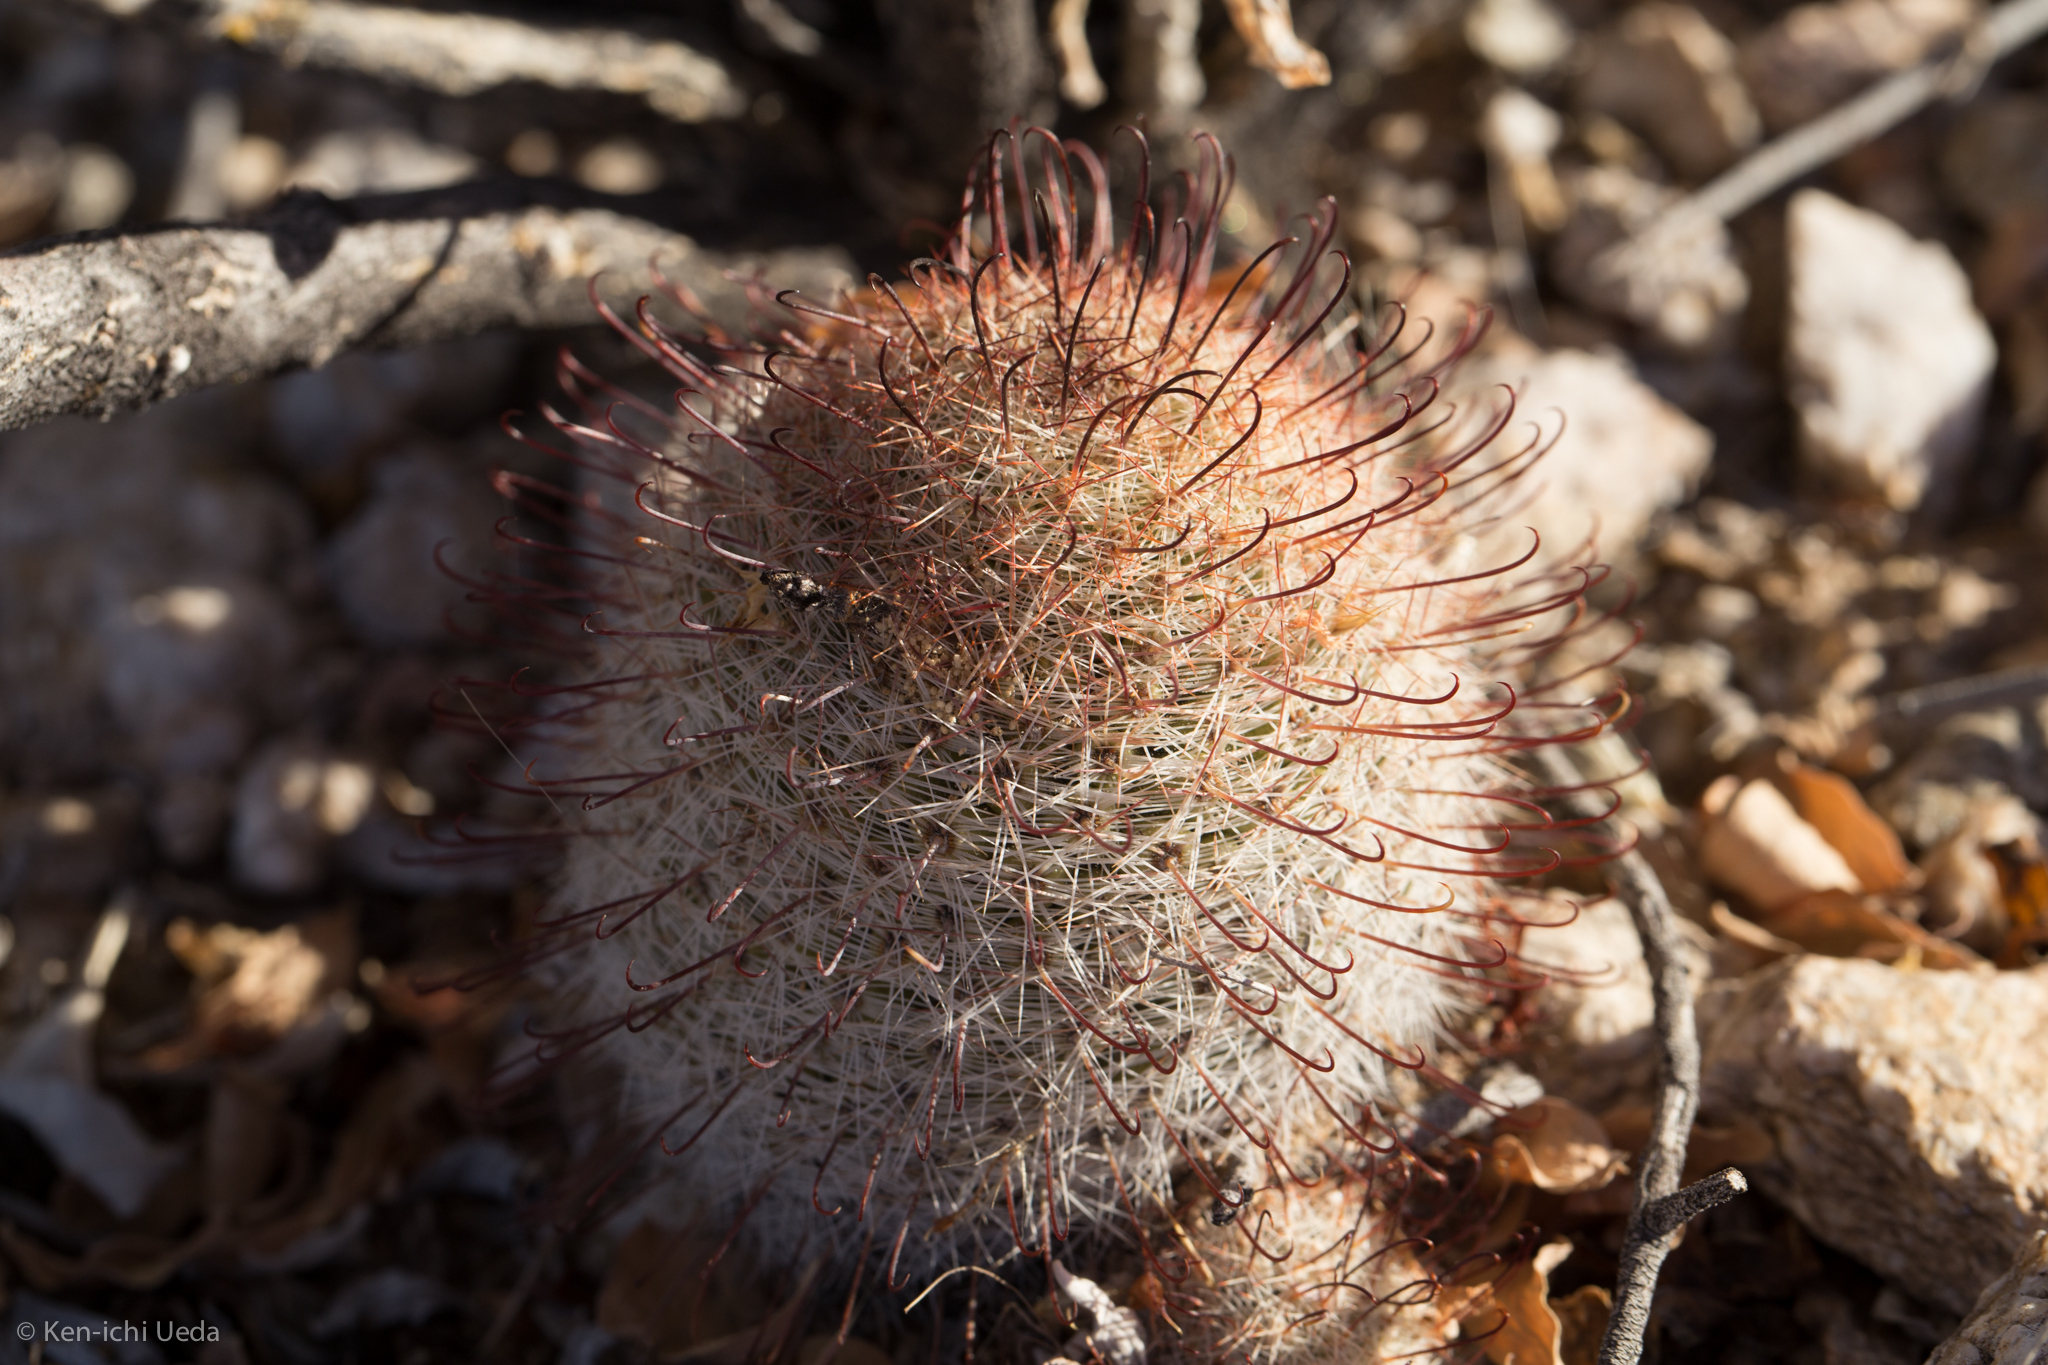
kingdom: Plantae
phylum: Tracheophyta
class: Magnoliopsida
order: Caryophyllales
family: Cactaceae
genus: Cochemiea
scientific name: Cochemiea grahamii
